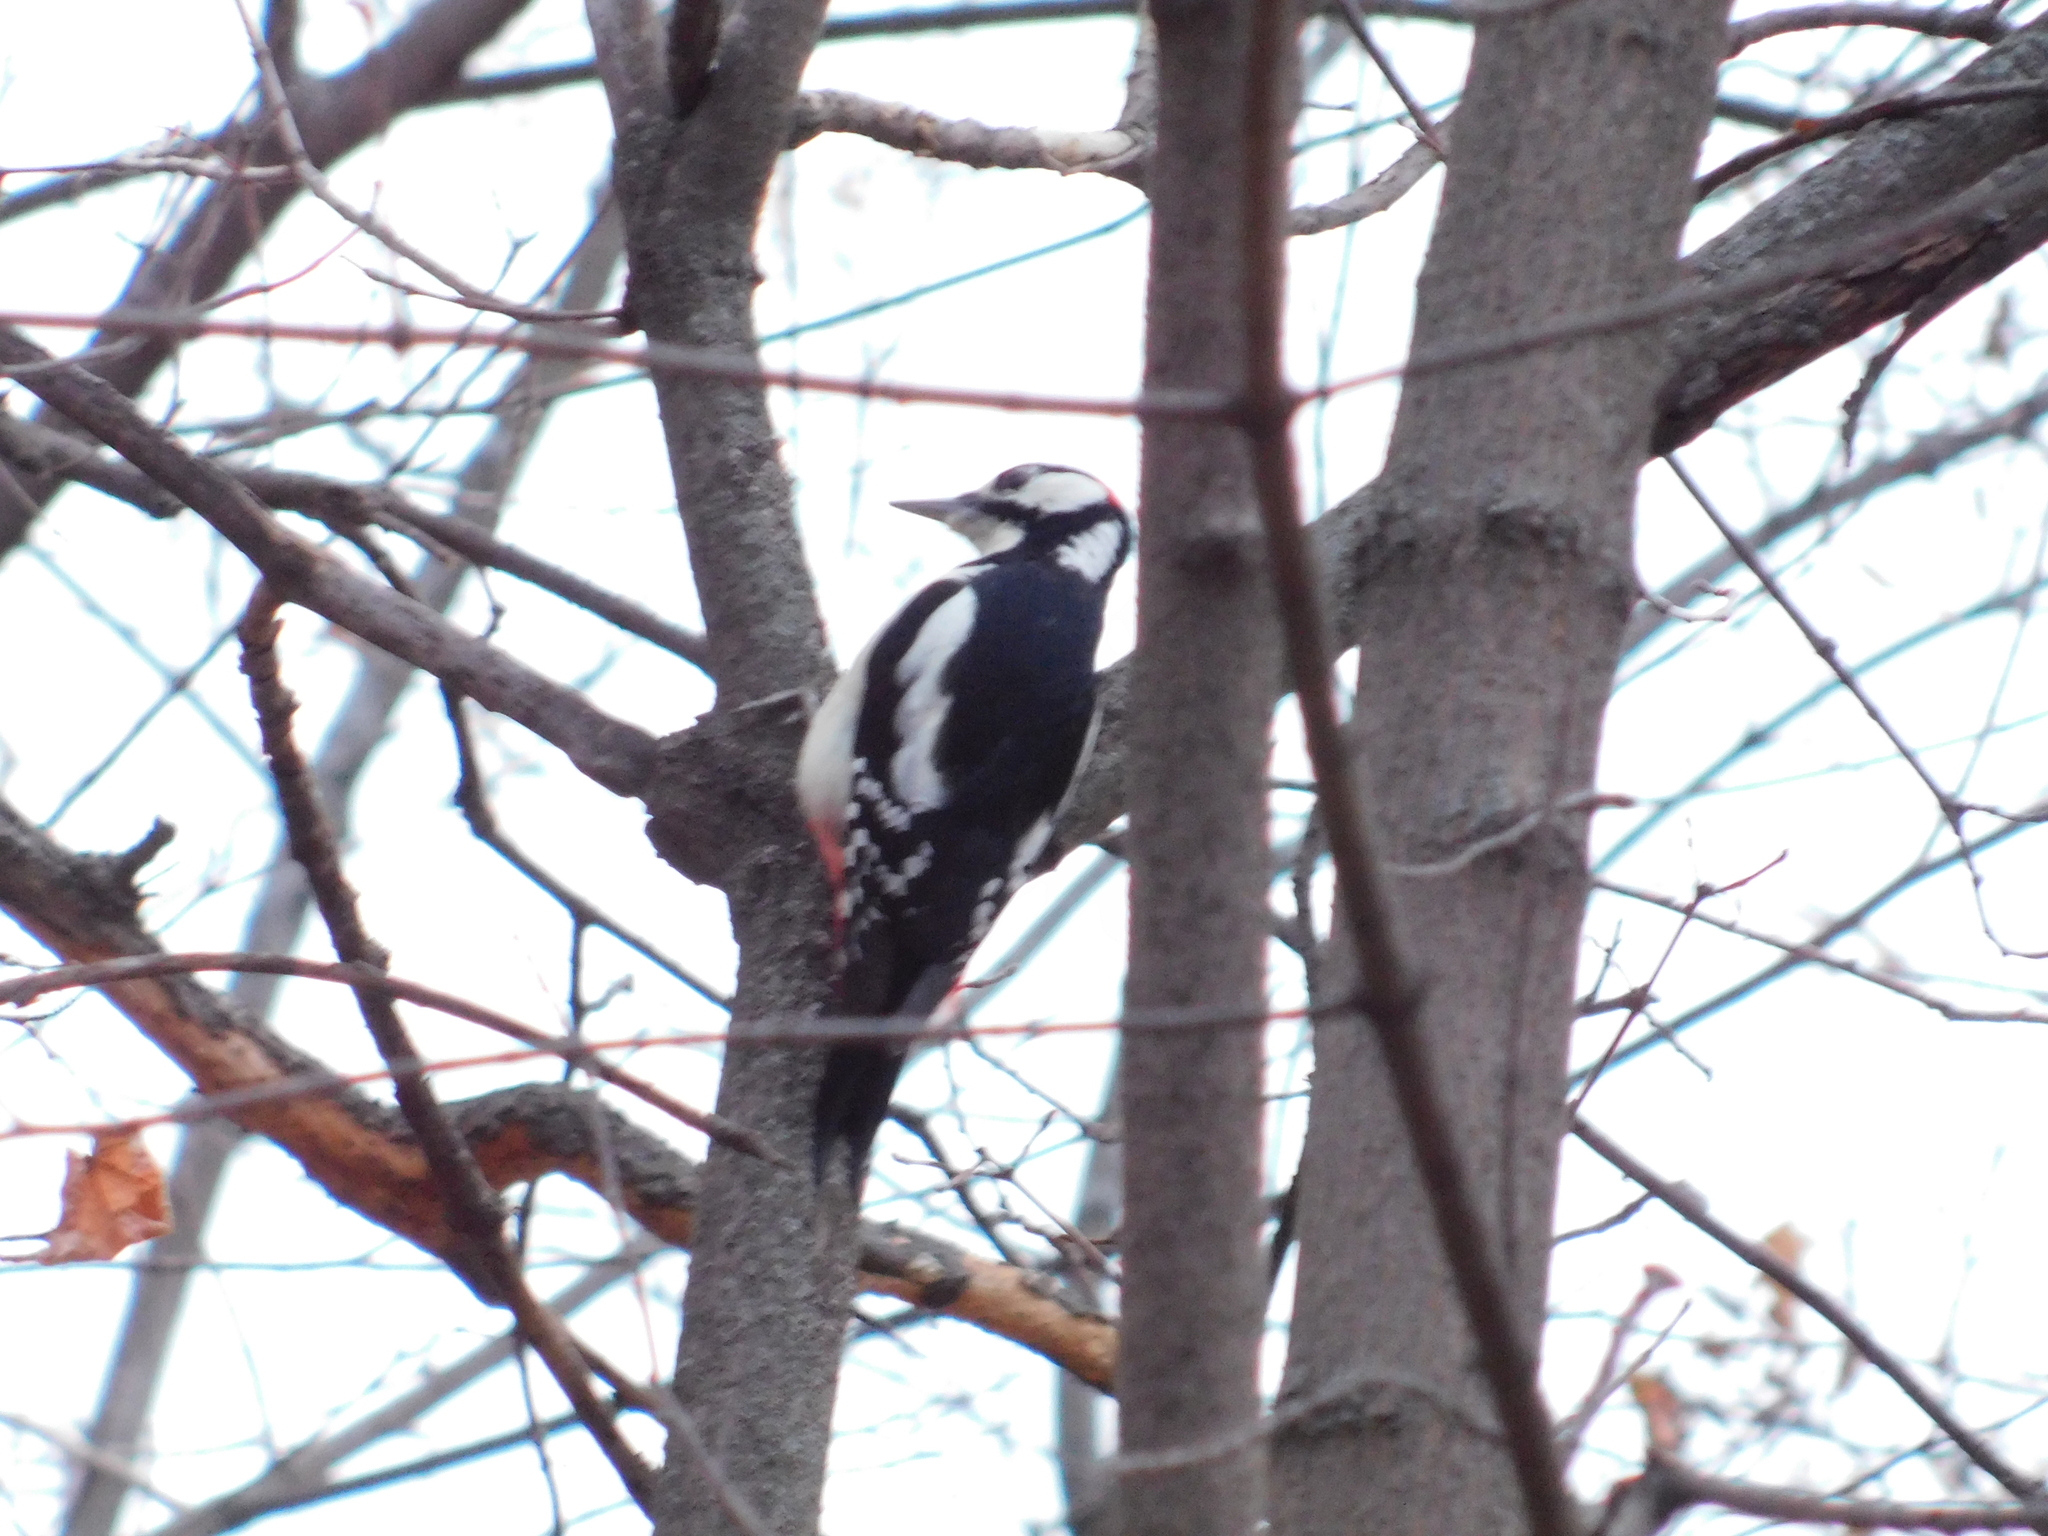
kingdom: Animalia
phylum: Chordata
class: Aves
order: Piciformes
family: Picidae
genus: Dendrocopos
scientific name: Dendrocopos major
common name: Great spotted woodpecker
